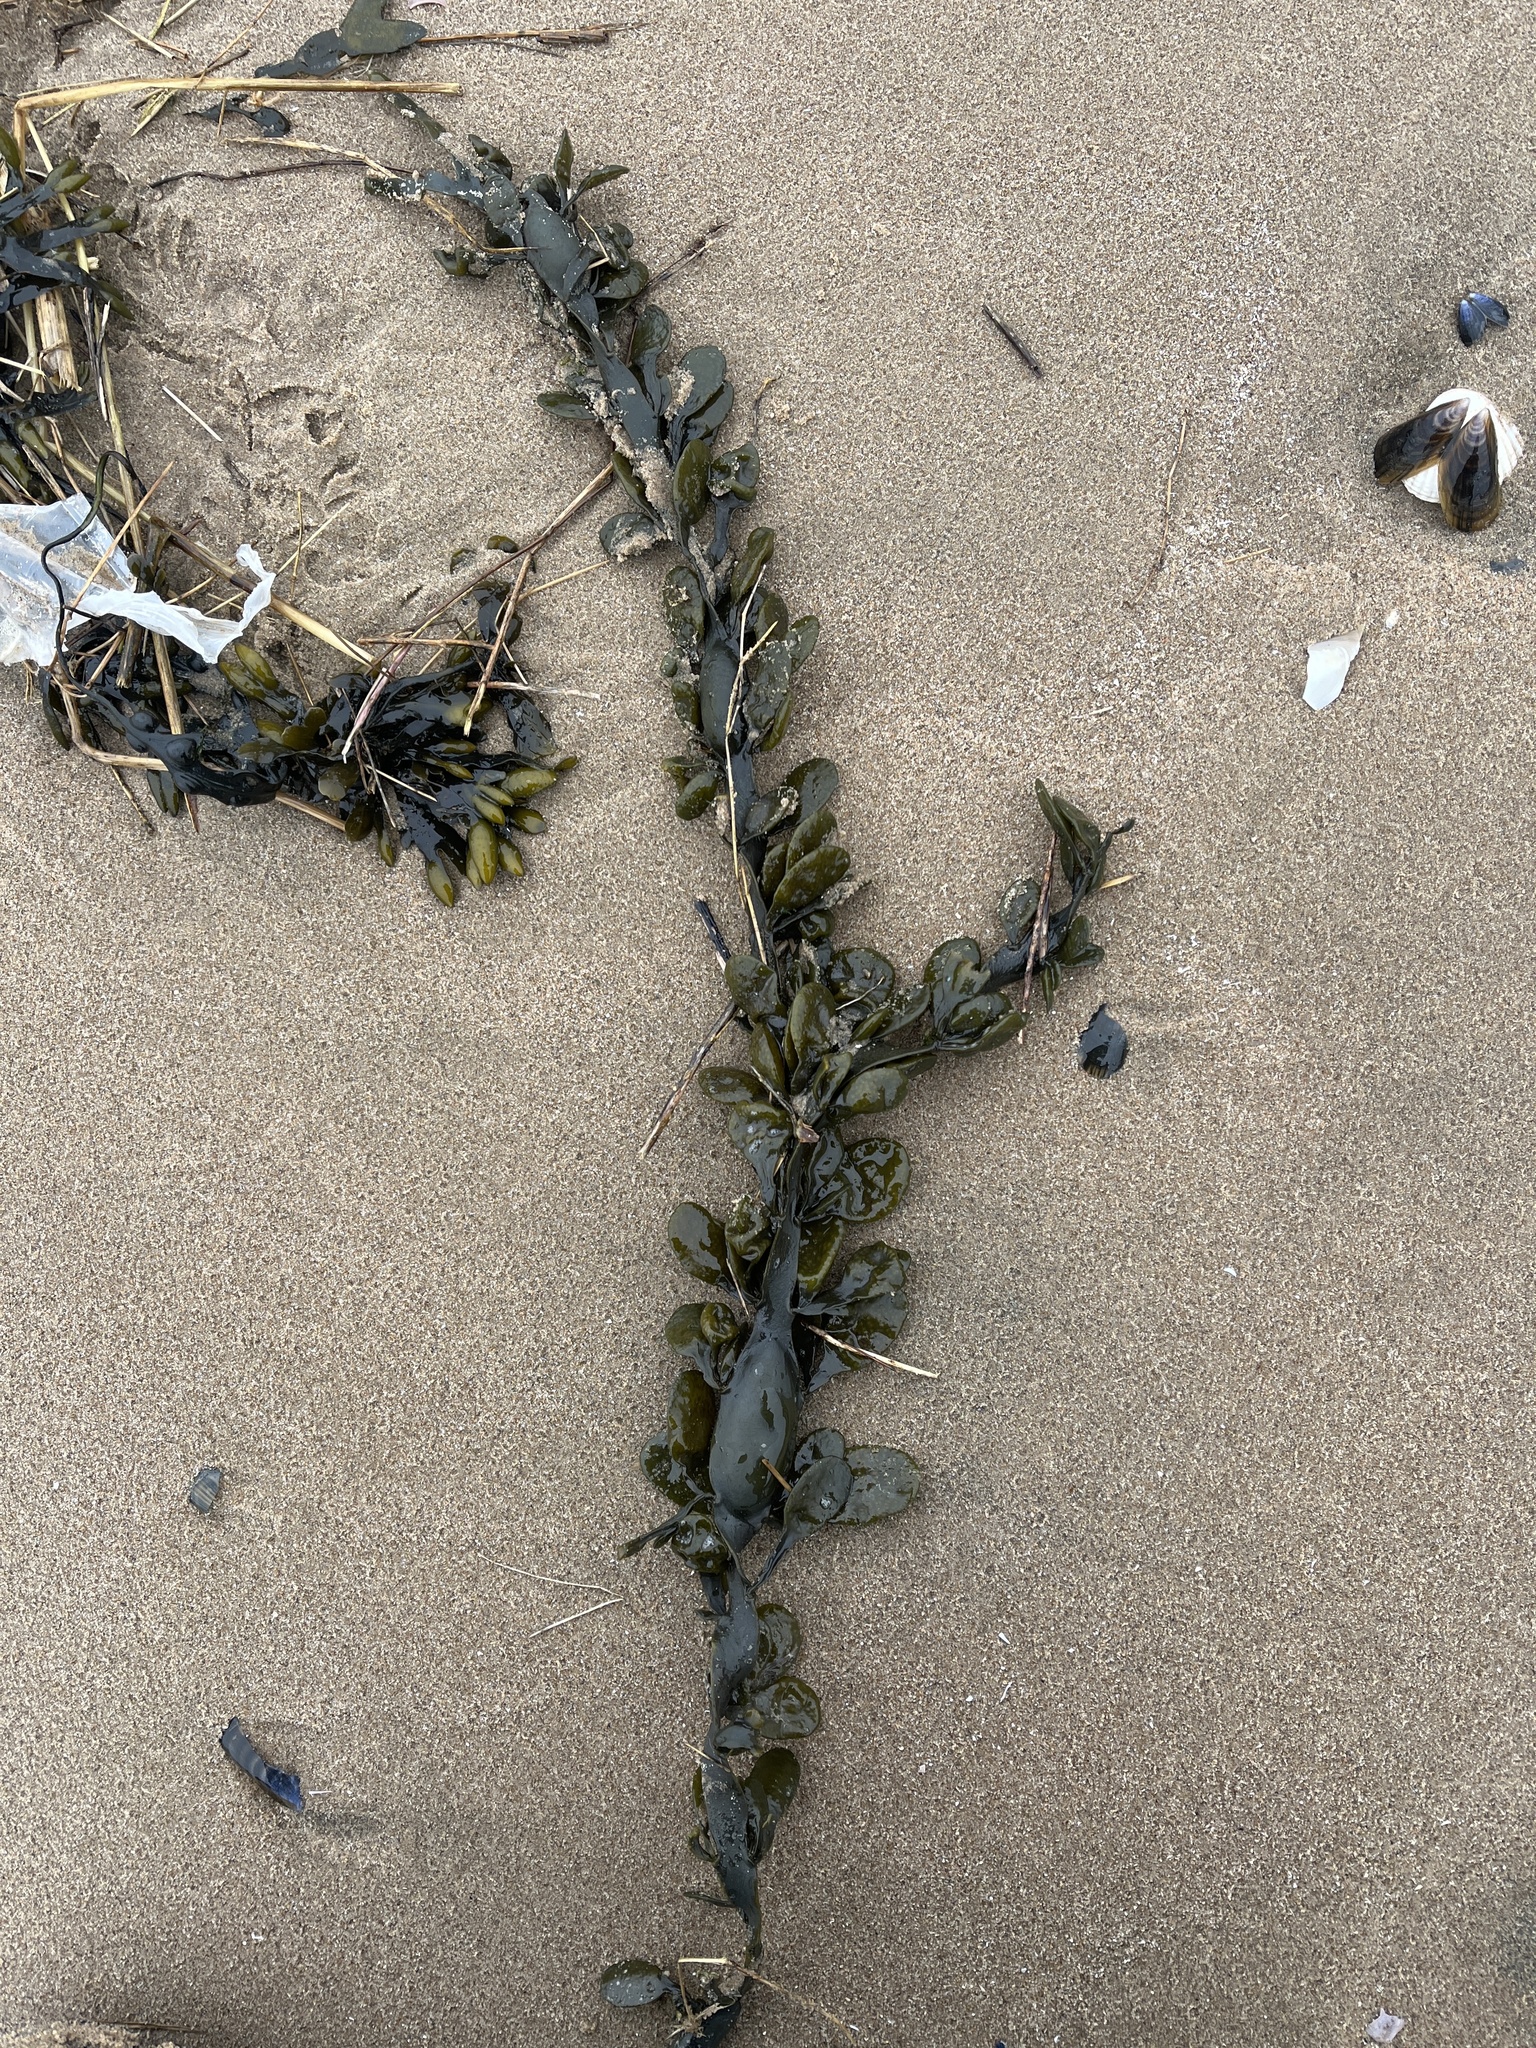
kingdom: Chromista
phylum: Ochrophyta
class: Phaeophyceae
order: Fucales
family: Fucaceae
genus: Ascophyllum
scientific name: Ascophyllum nodosum
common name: Knotted wrack
